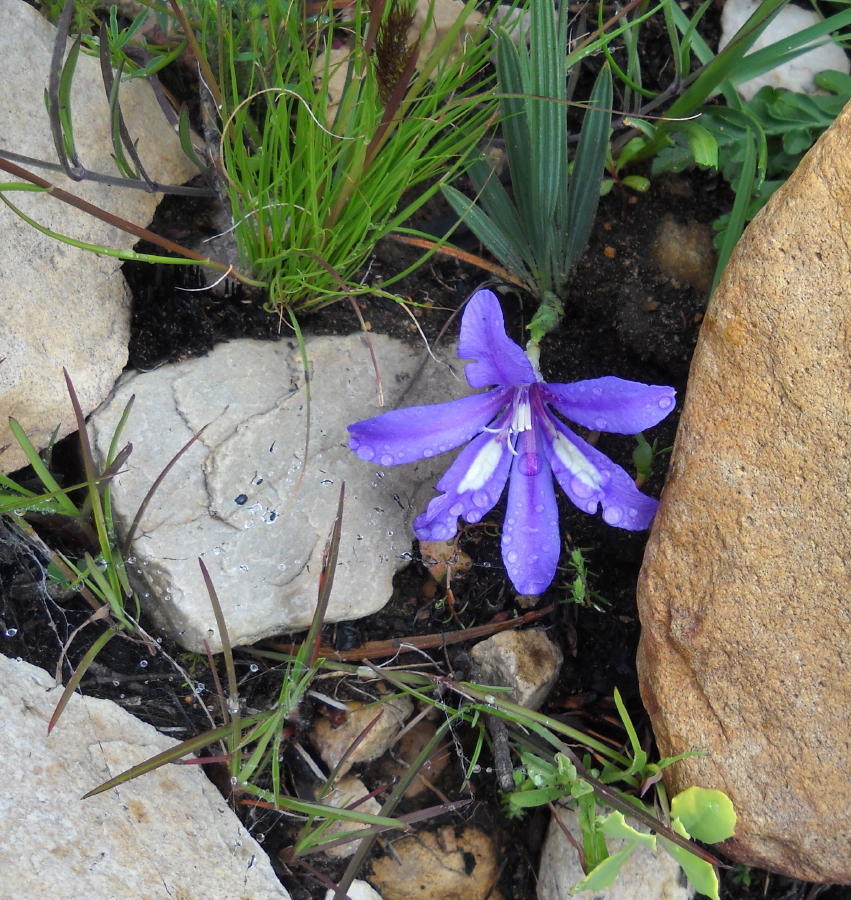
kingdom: Plantae
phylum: Tracheophyta
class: Liliopsida
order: Asparagales
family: Iridaceae
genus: Babiana
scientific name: Babiana sambucina
